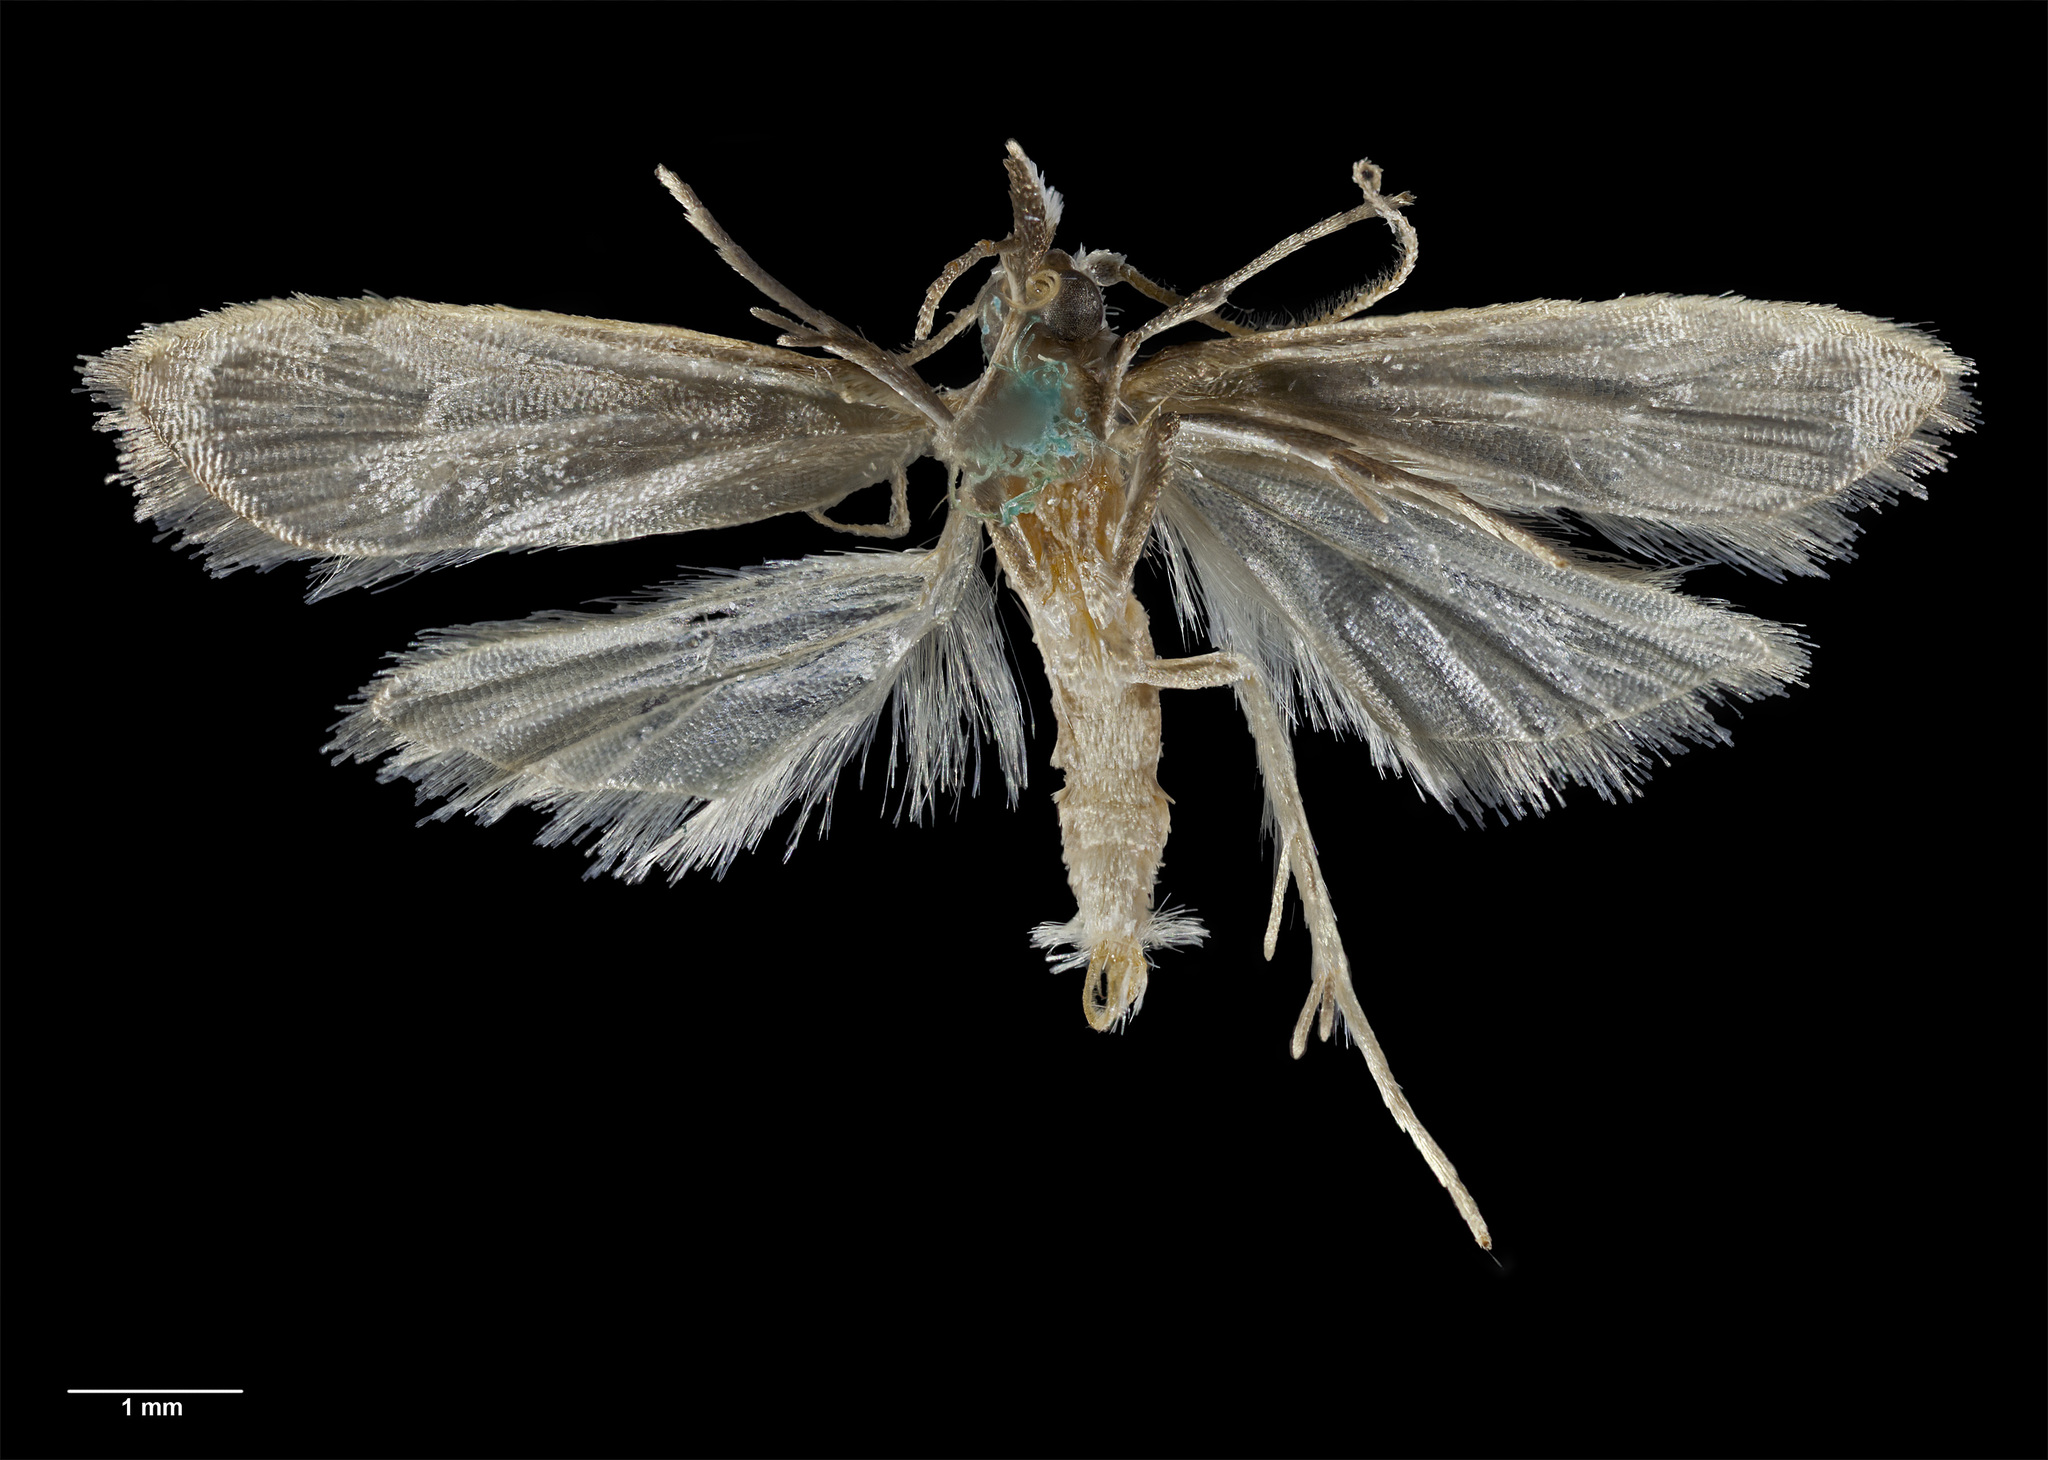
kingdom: Animalia
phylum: Arthropoda
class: Insecta
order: Lepidoptera
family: Carposinidae
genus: Paramorpha
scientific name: Paramorpha
